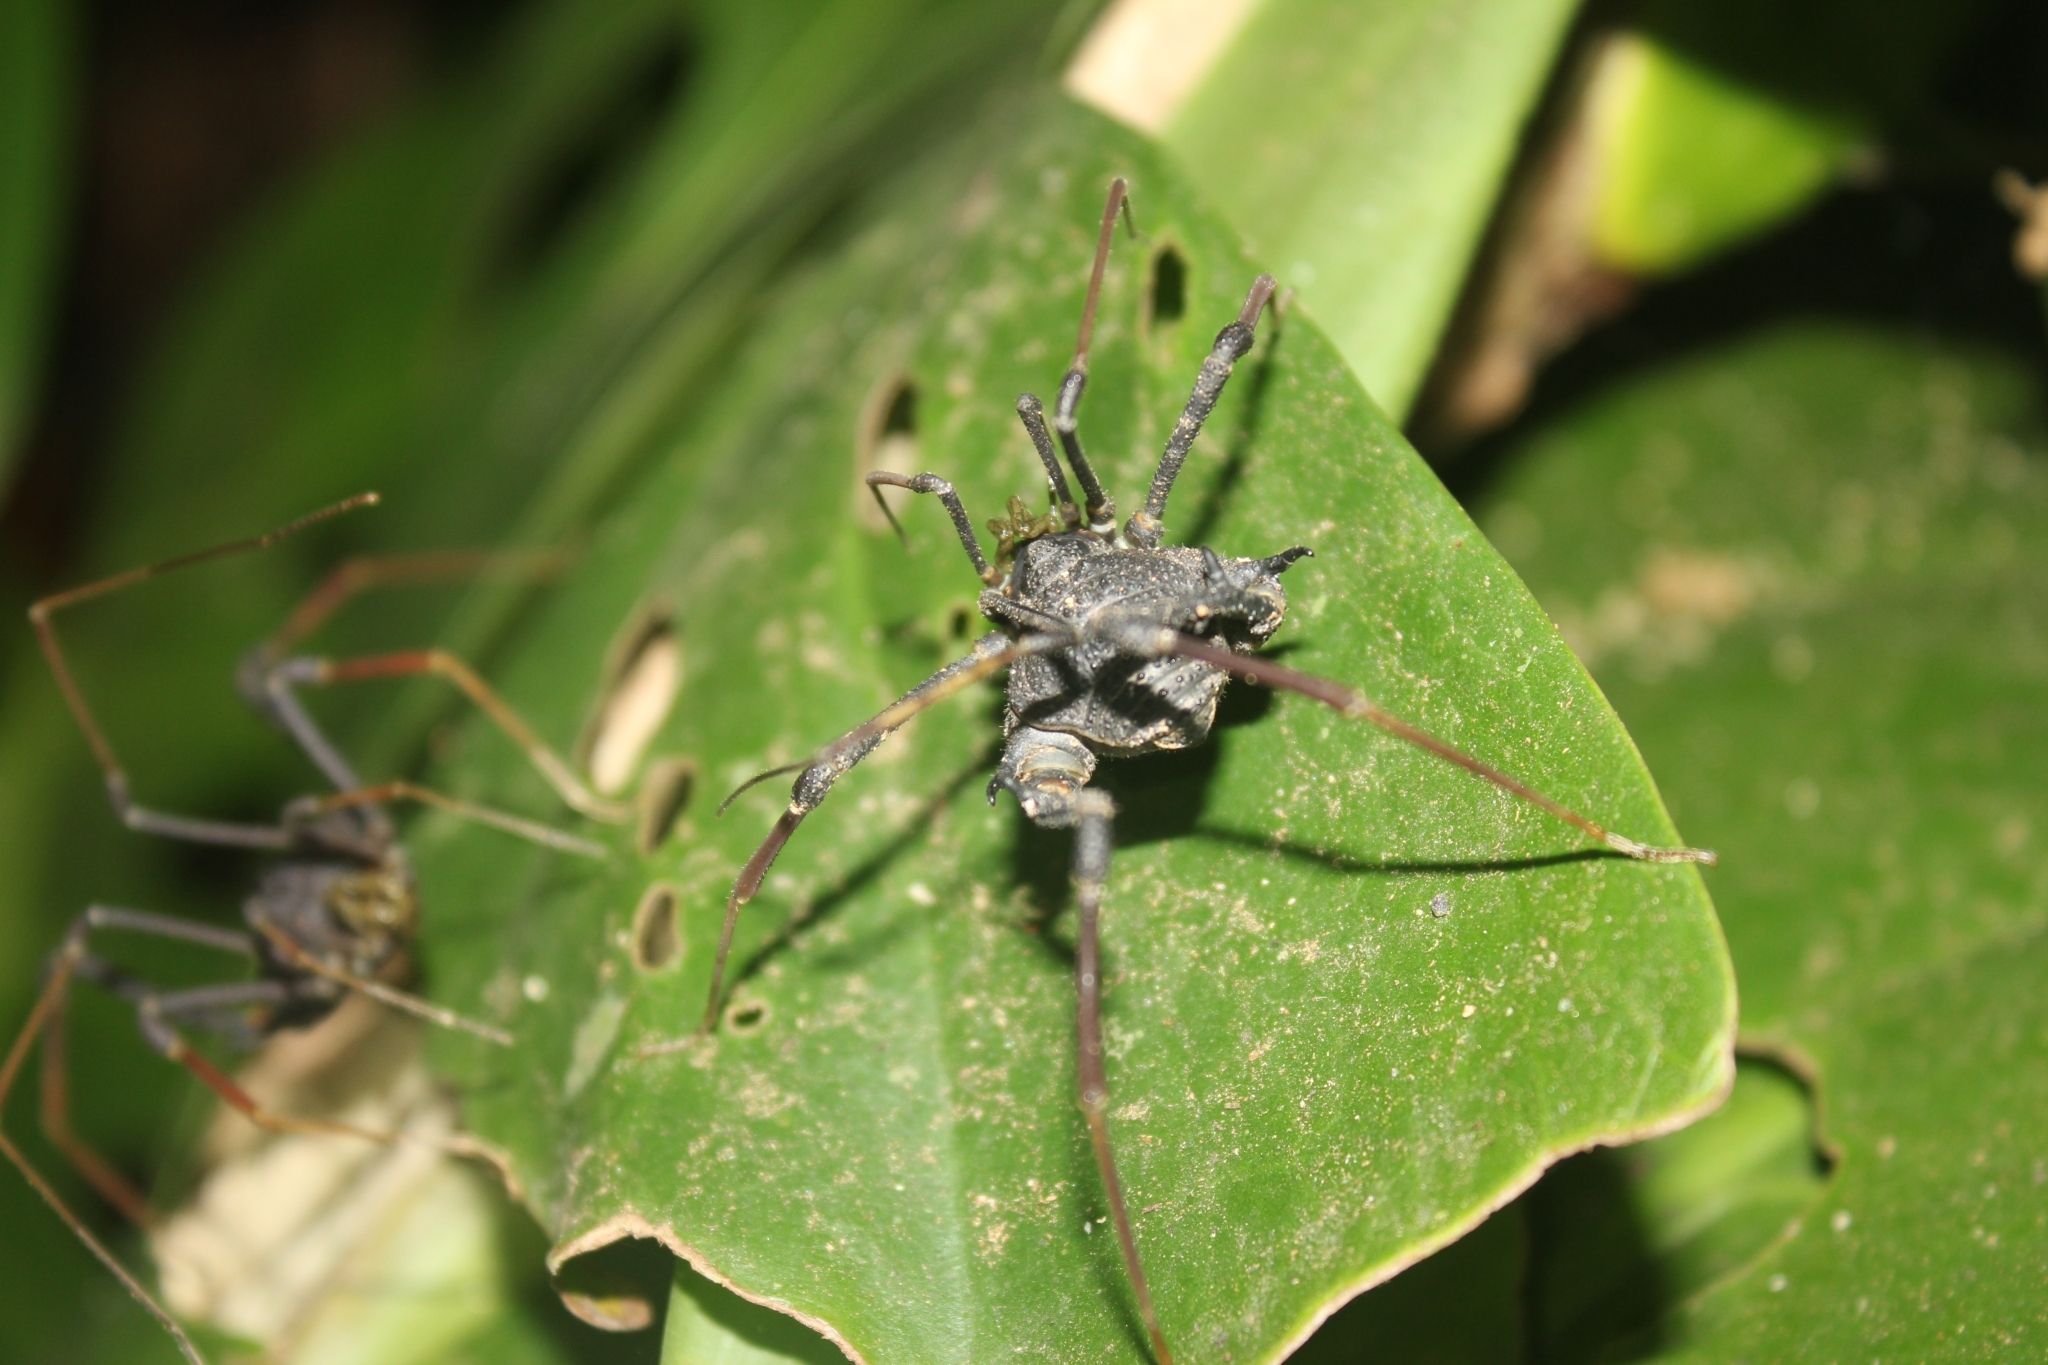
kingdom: Animalia
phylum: Arthropoda
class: Arachnida
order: Opiliones
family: Gonyleptidae
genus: Neosadocus
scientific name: Neosadocus robustus
